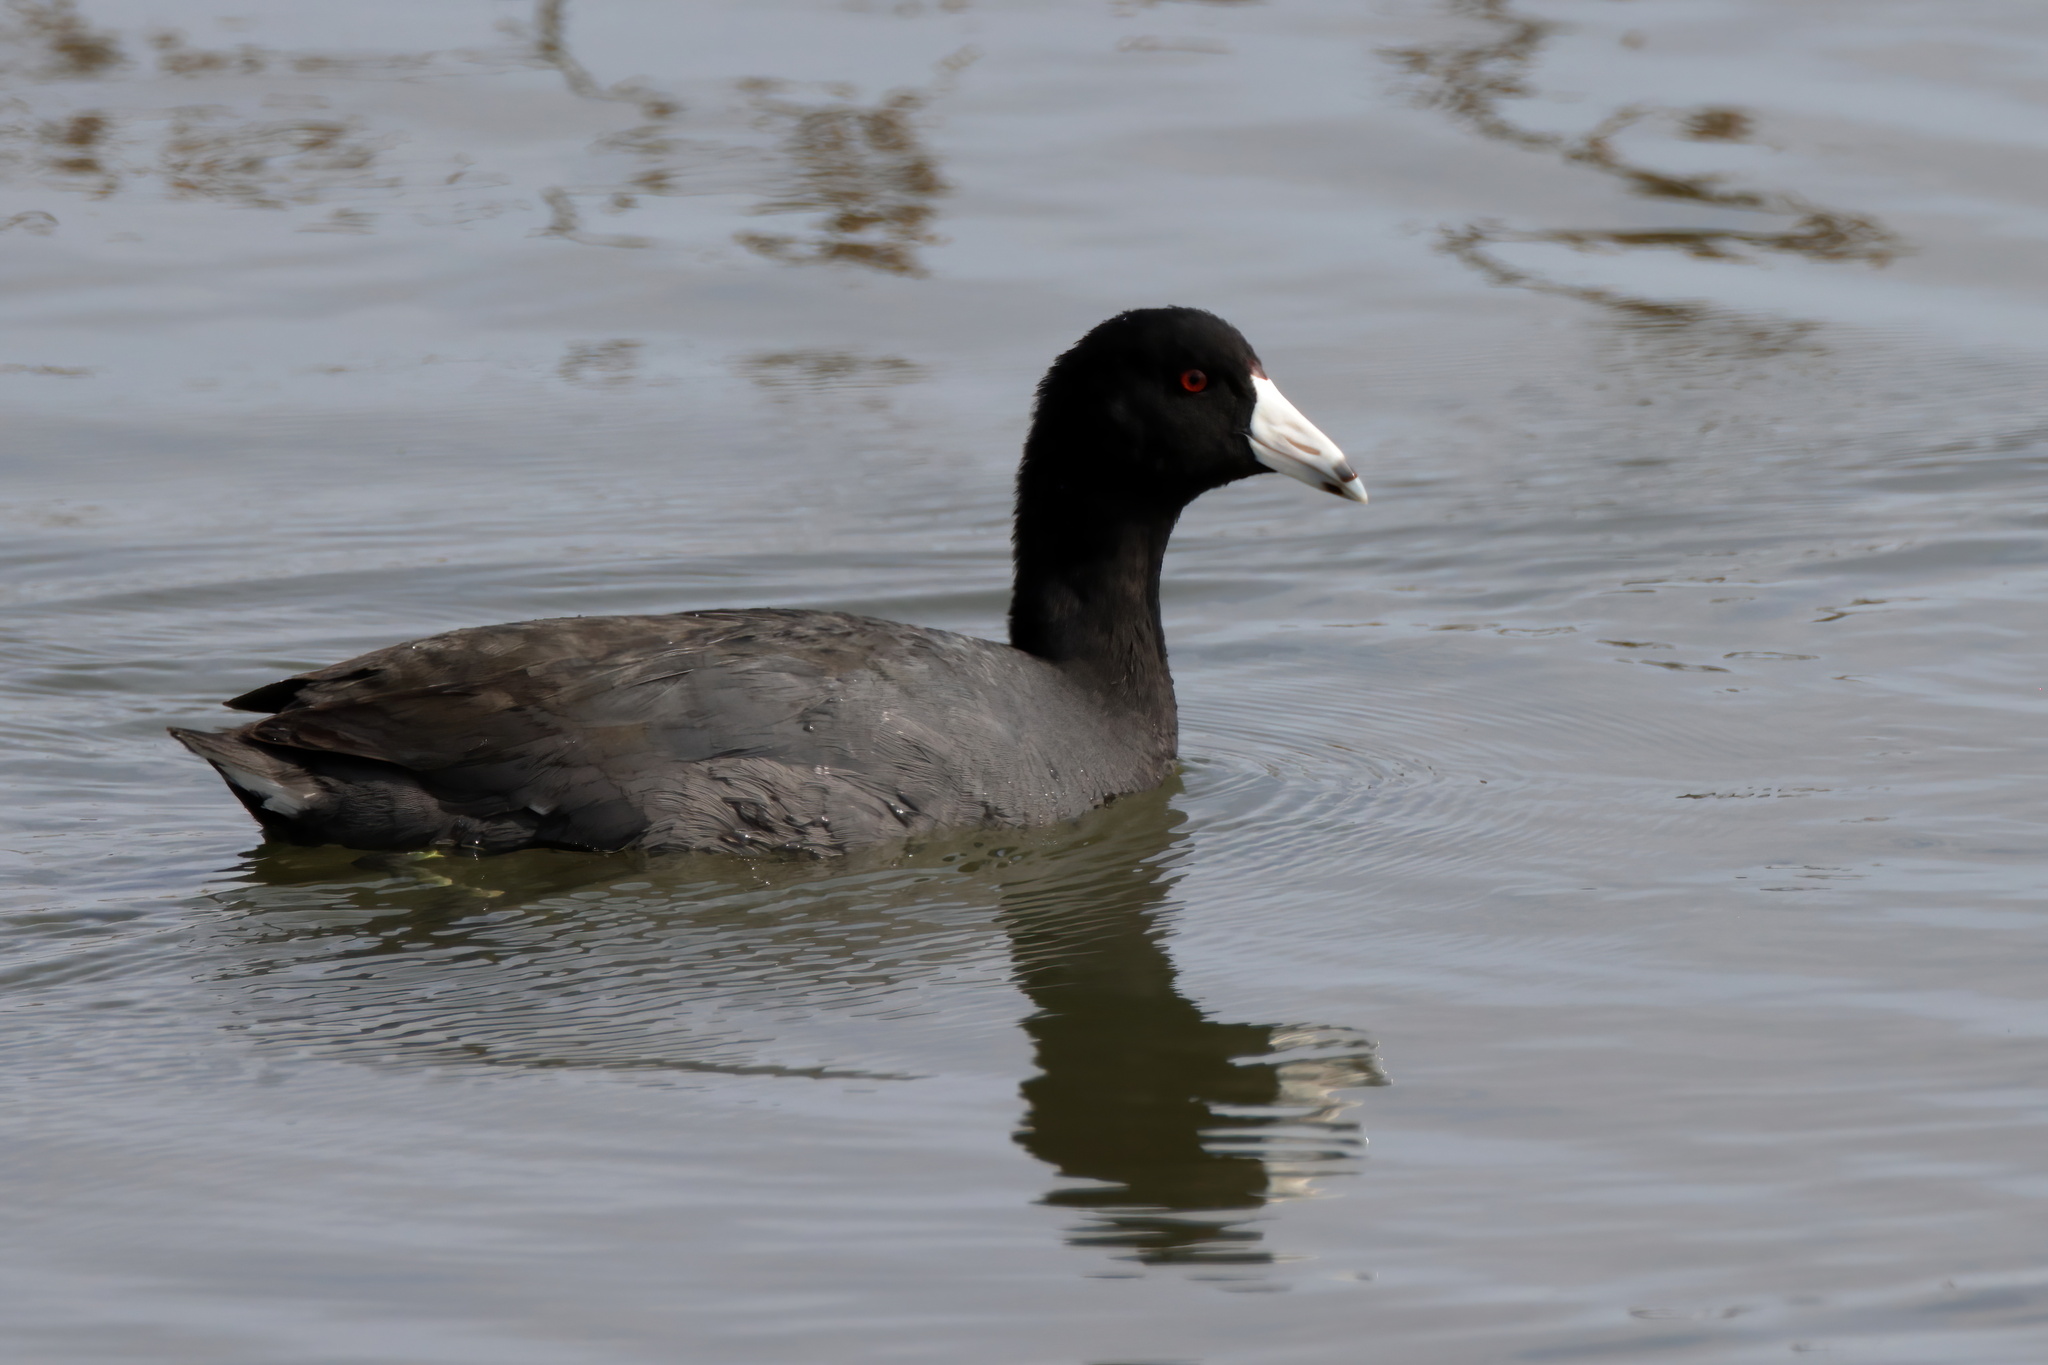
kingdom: Animalia
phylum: Chordata
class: Aves
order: Gruiformes
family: Rallidae
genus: Fulica
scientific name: Fulica americana
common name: American coot
